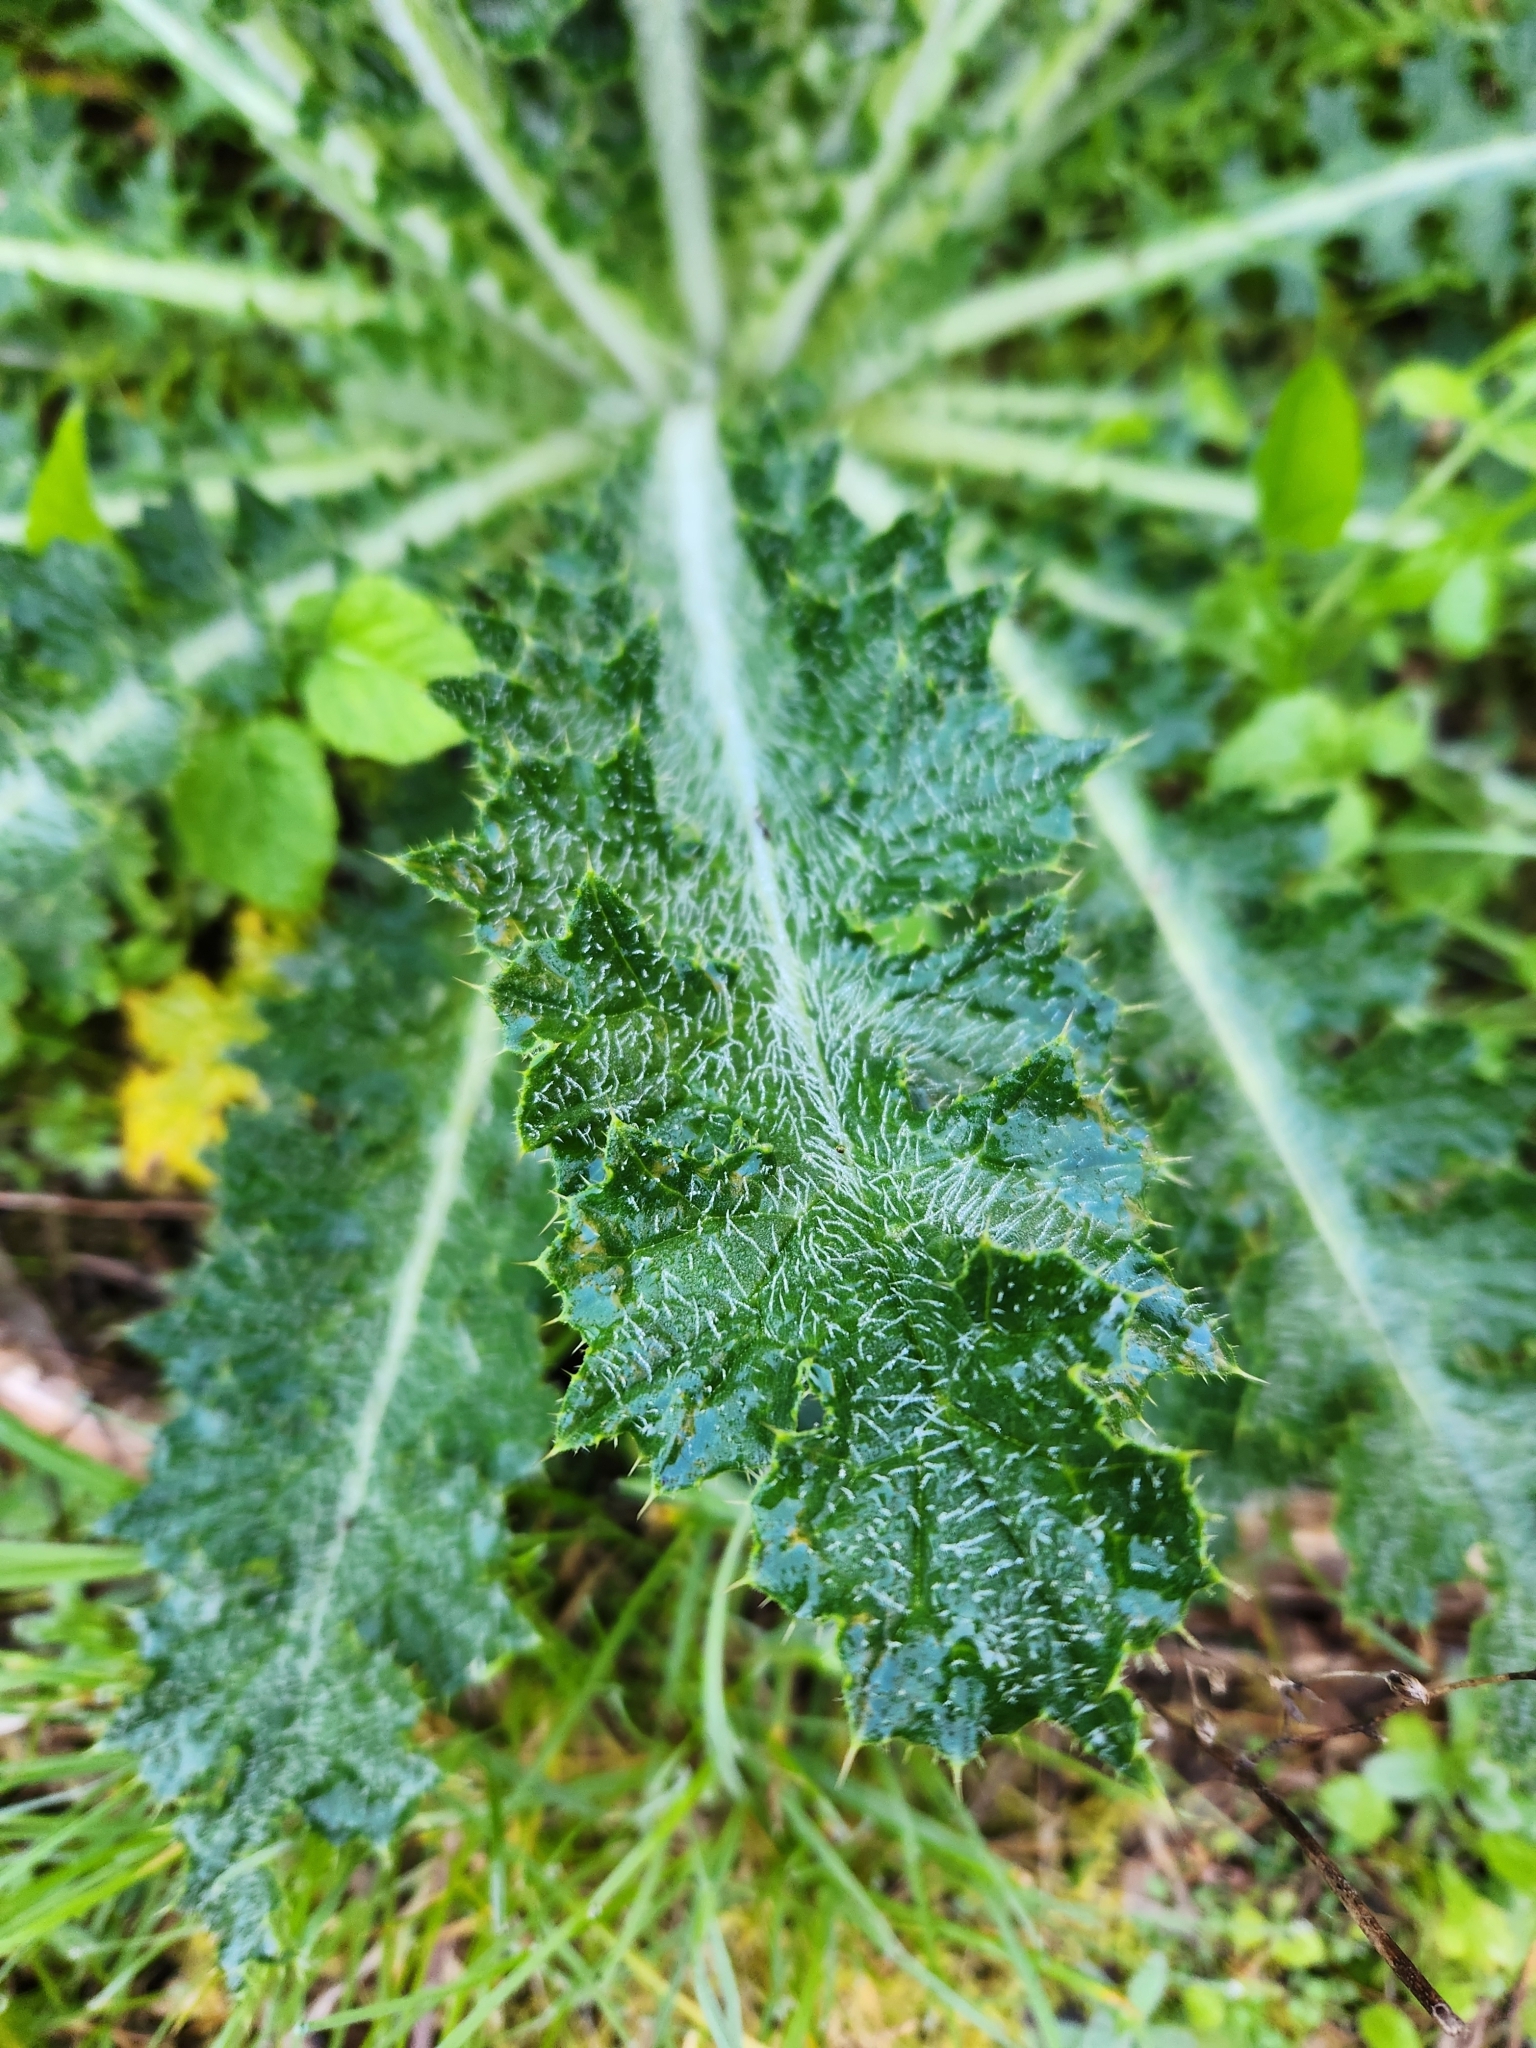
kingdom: Plantae
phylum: Tracheophyta
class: Magnoliopsida
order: Asterales
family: Asteraceae
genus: Cirsium
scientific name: Cirsium brevistylum
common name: Indian thistle
